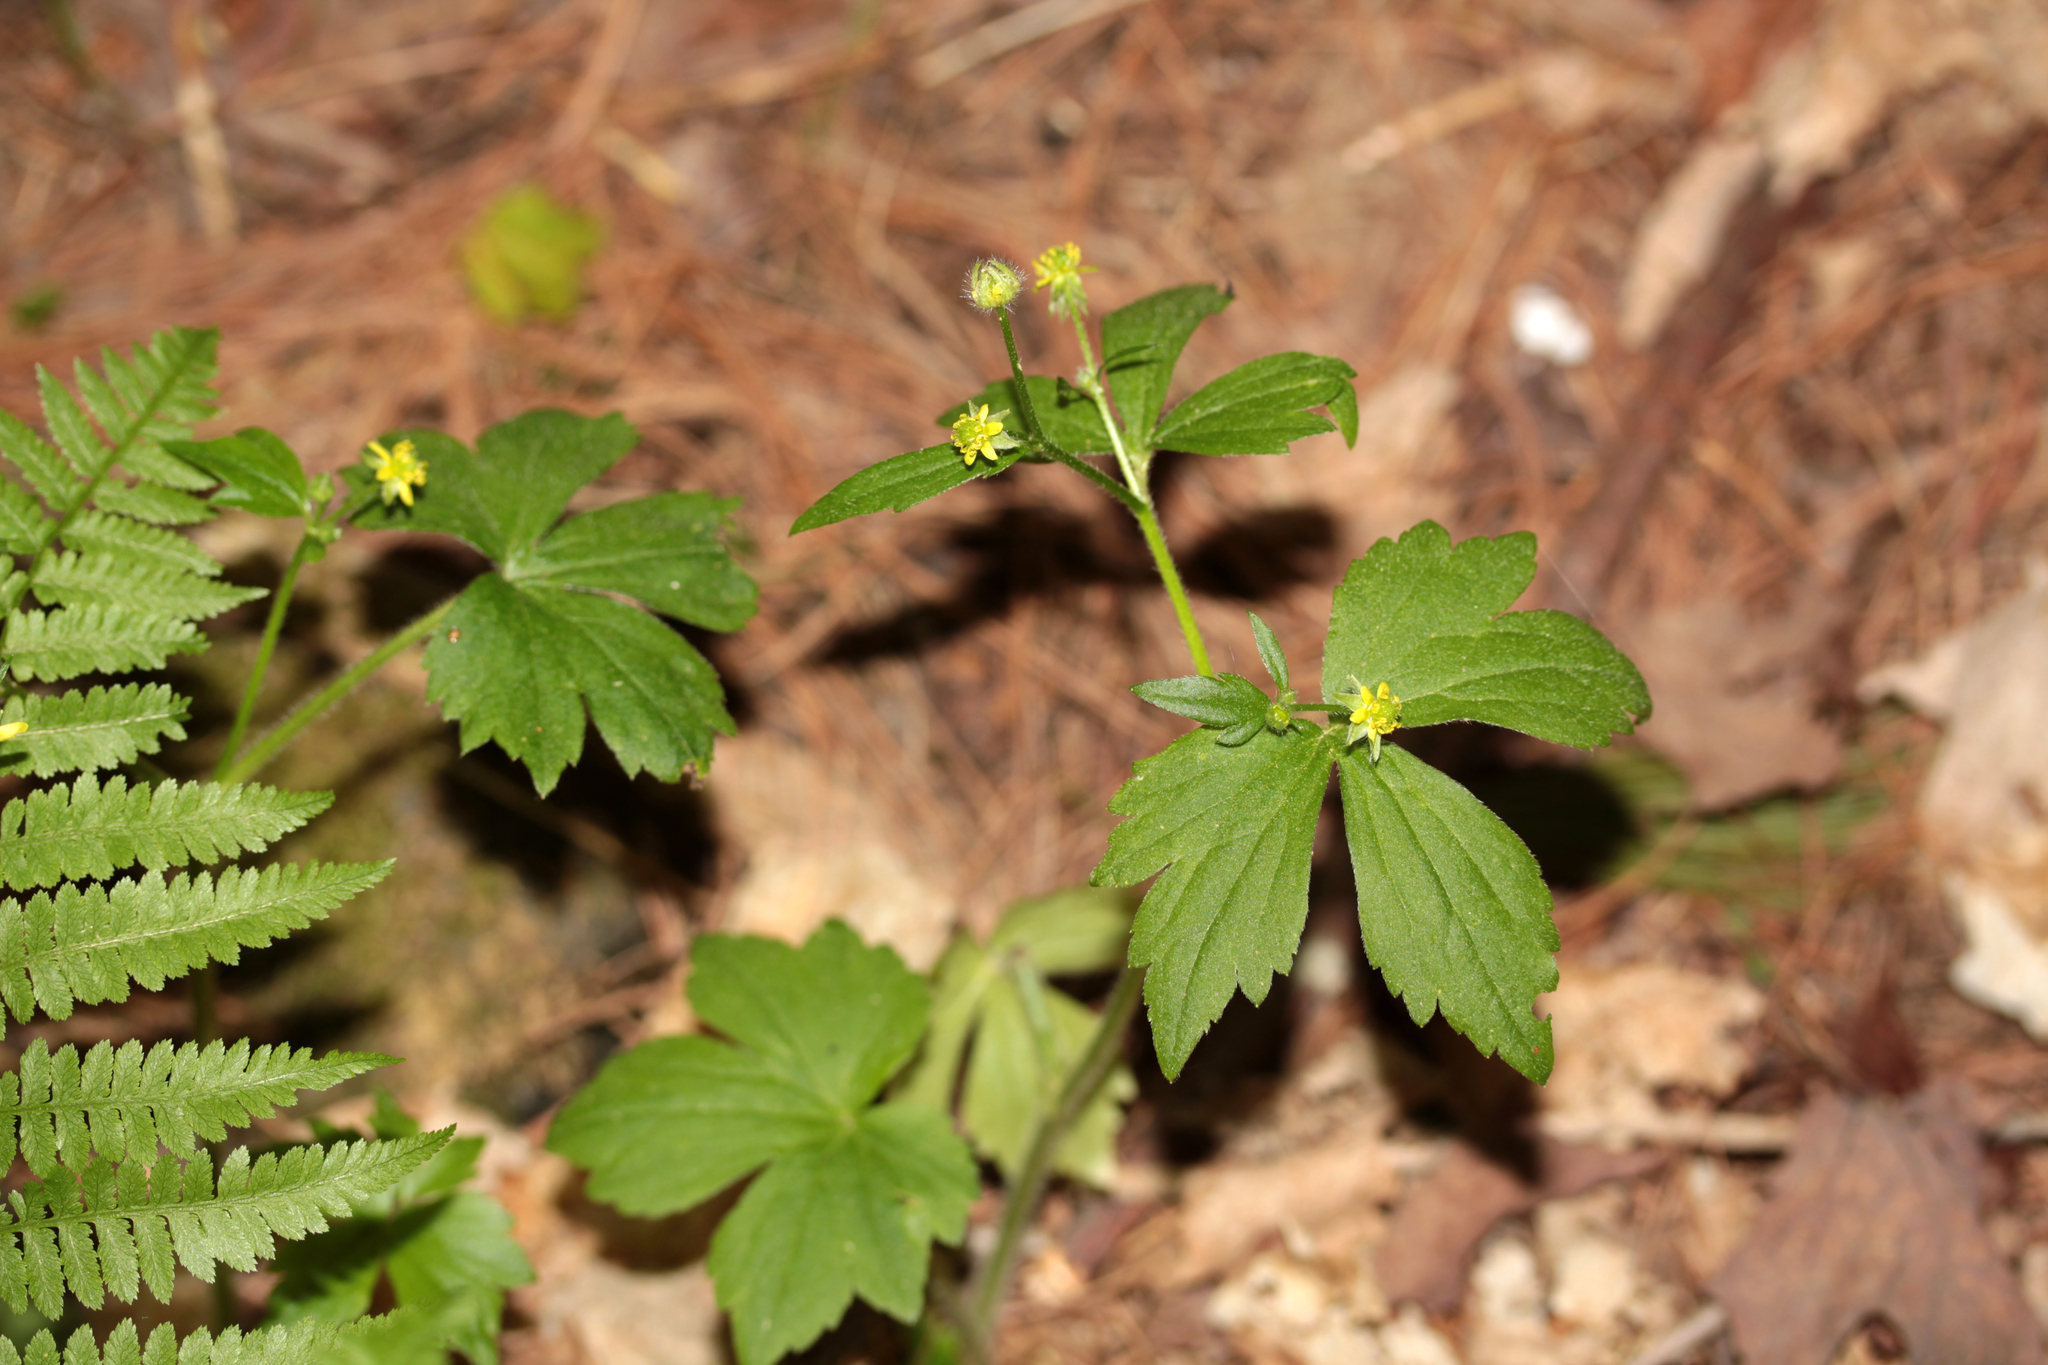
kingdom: Plantae
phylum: Tracheophyta
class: Magnoliopsida
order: Ranunculales
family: Ranunculaceae
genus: Ranunculus
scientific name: Ranunculus recurvatus
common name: Blisterwort
